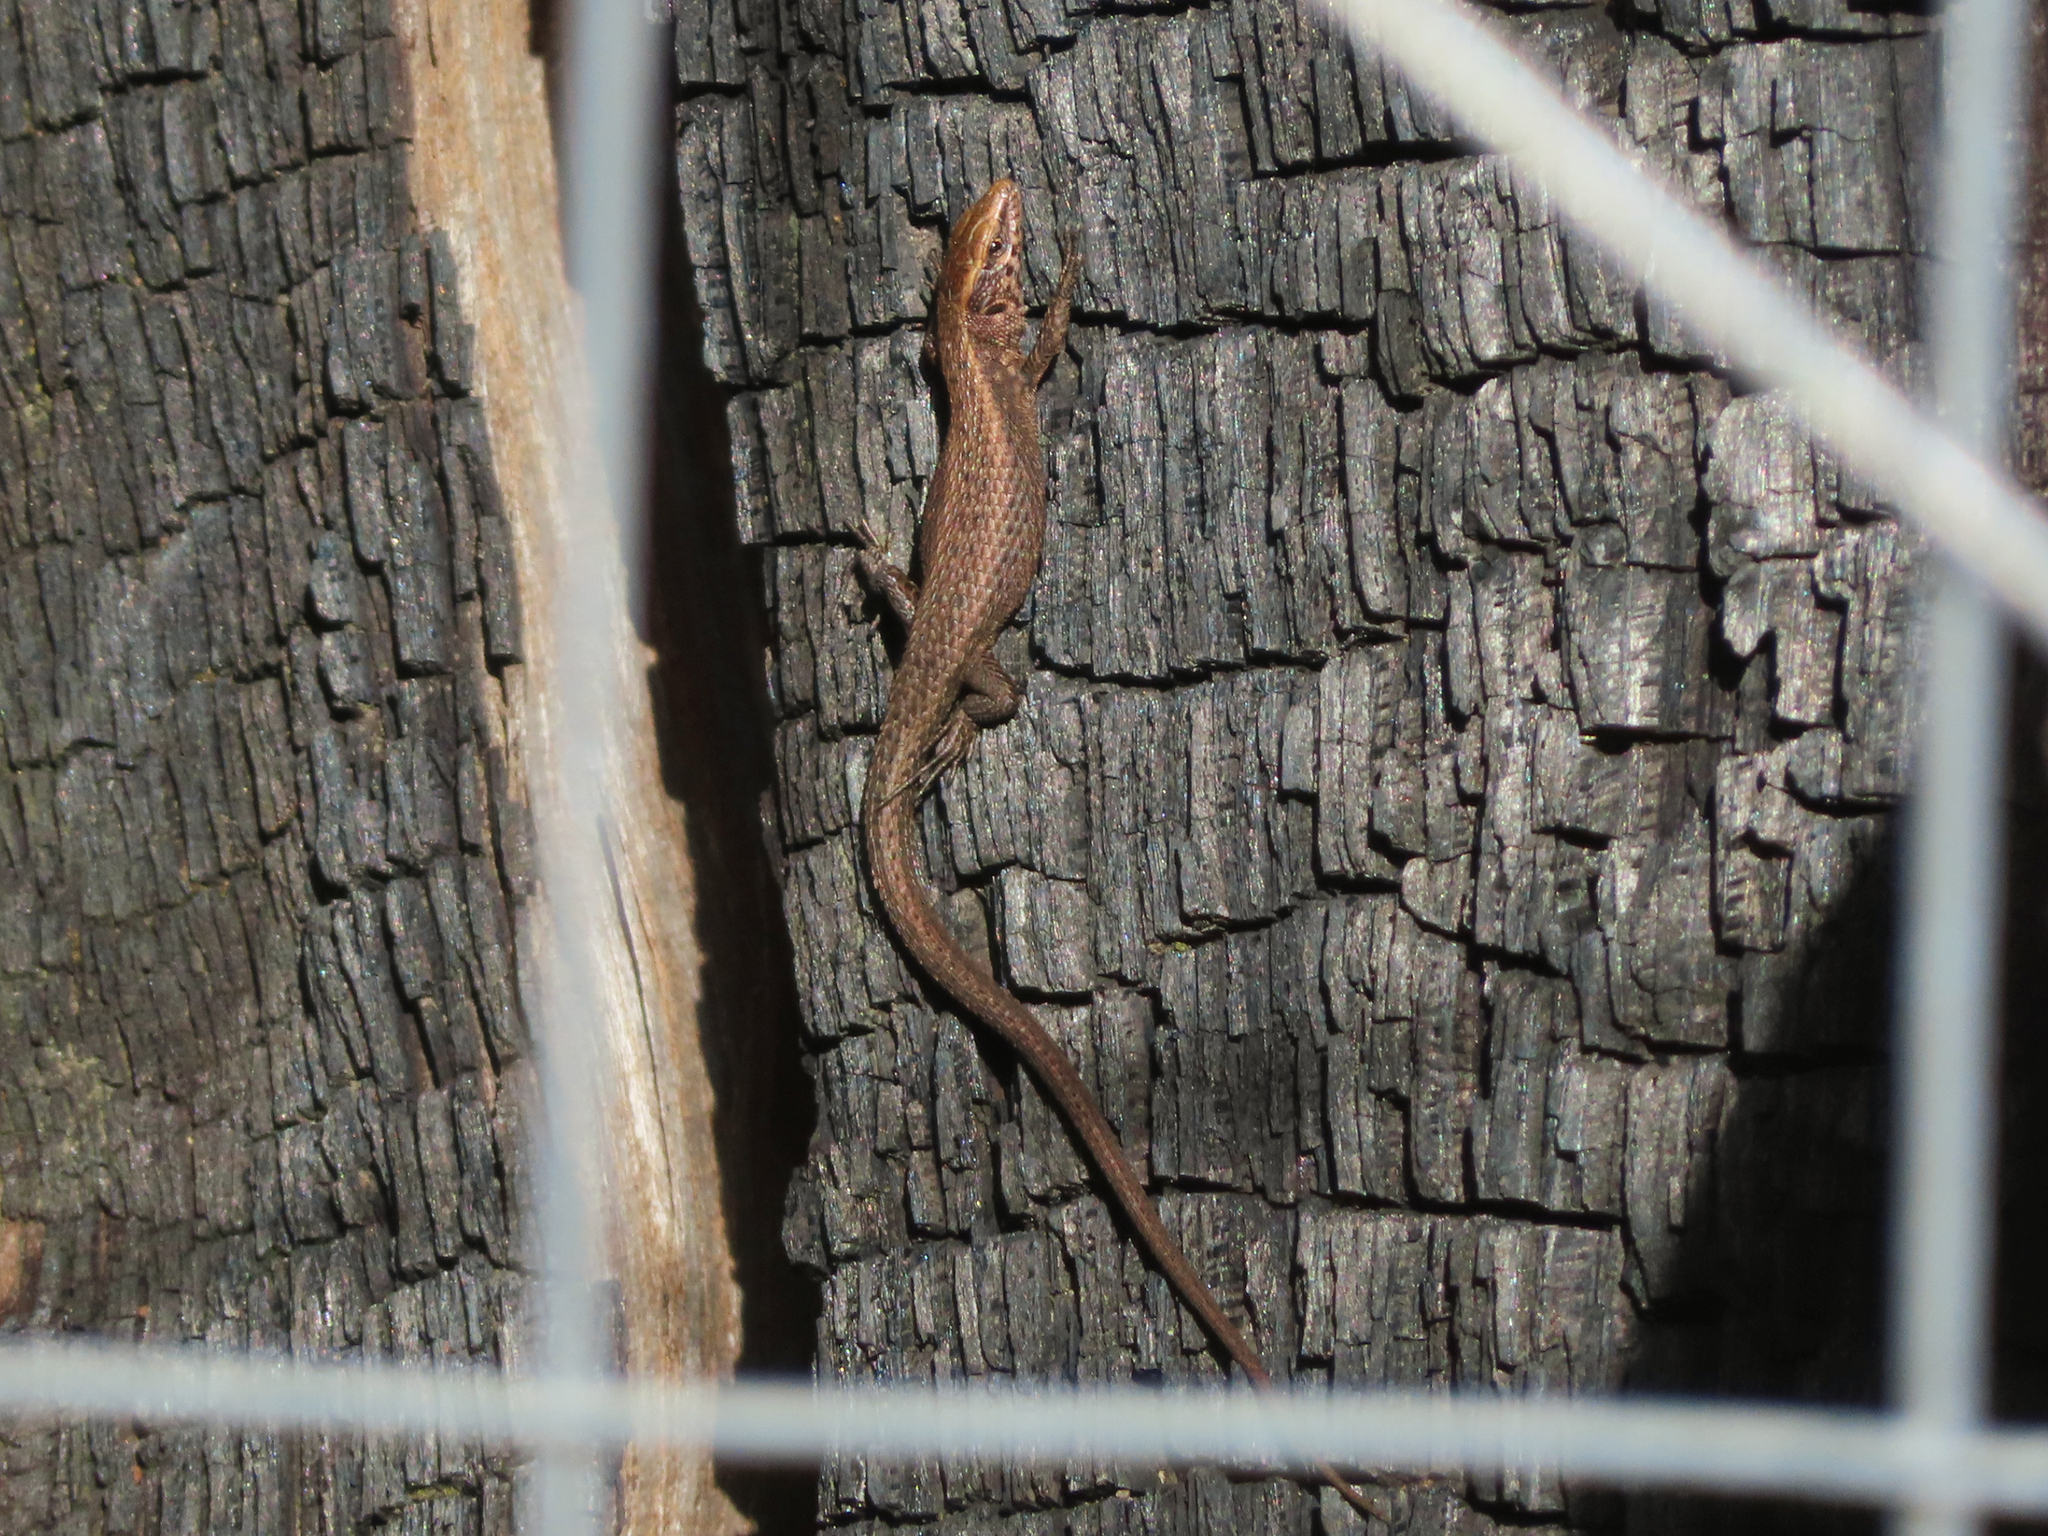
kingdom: Animalia
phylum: Chordata
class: Squamata
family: Lacertidae
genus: Algyroides
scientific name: Algyroides moreoticus
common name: Greek algyroides
